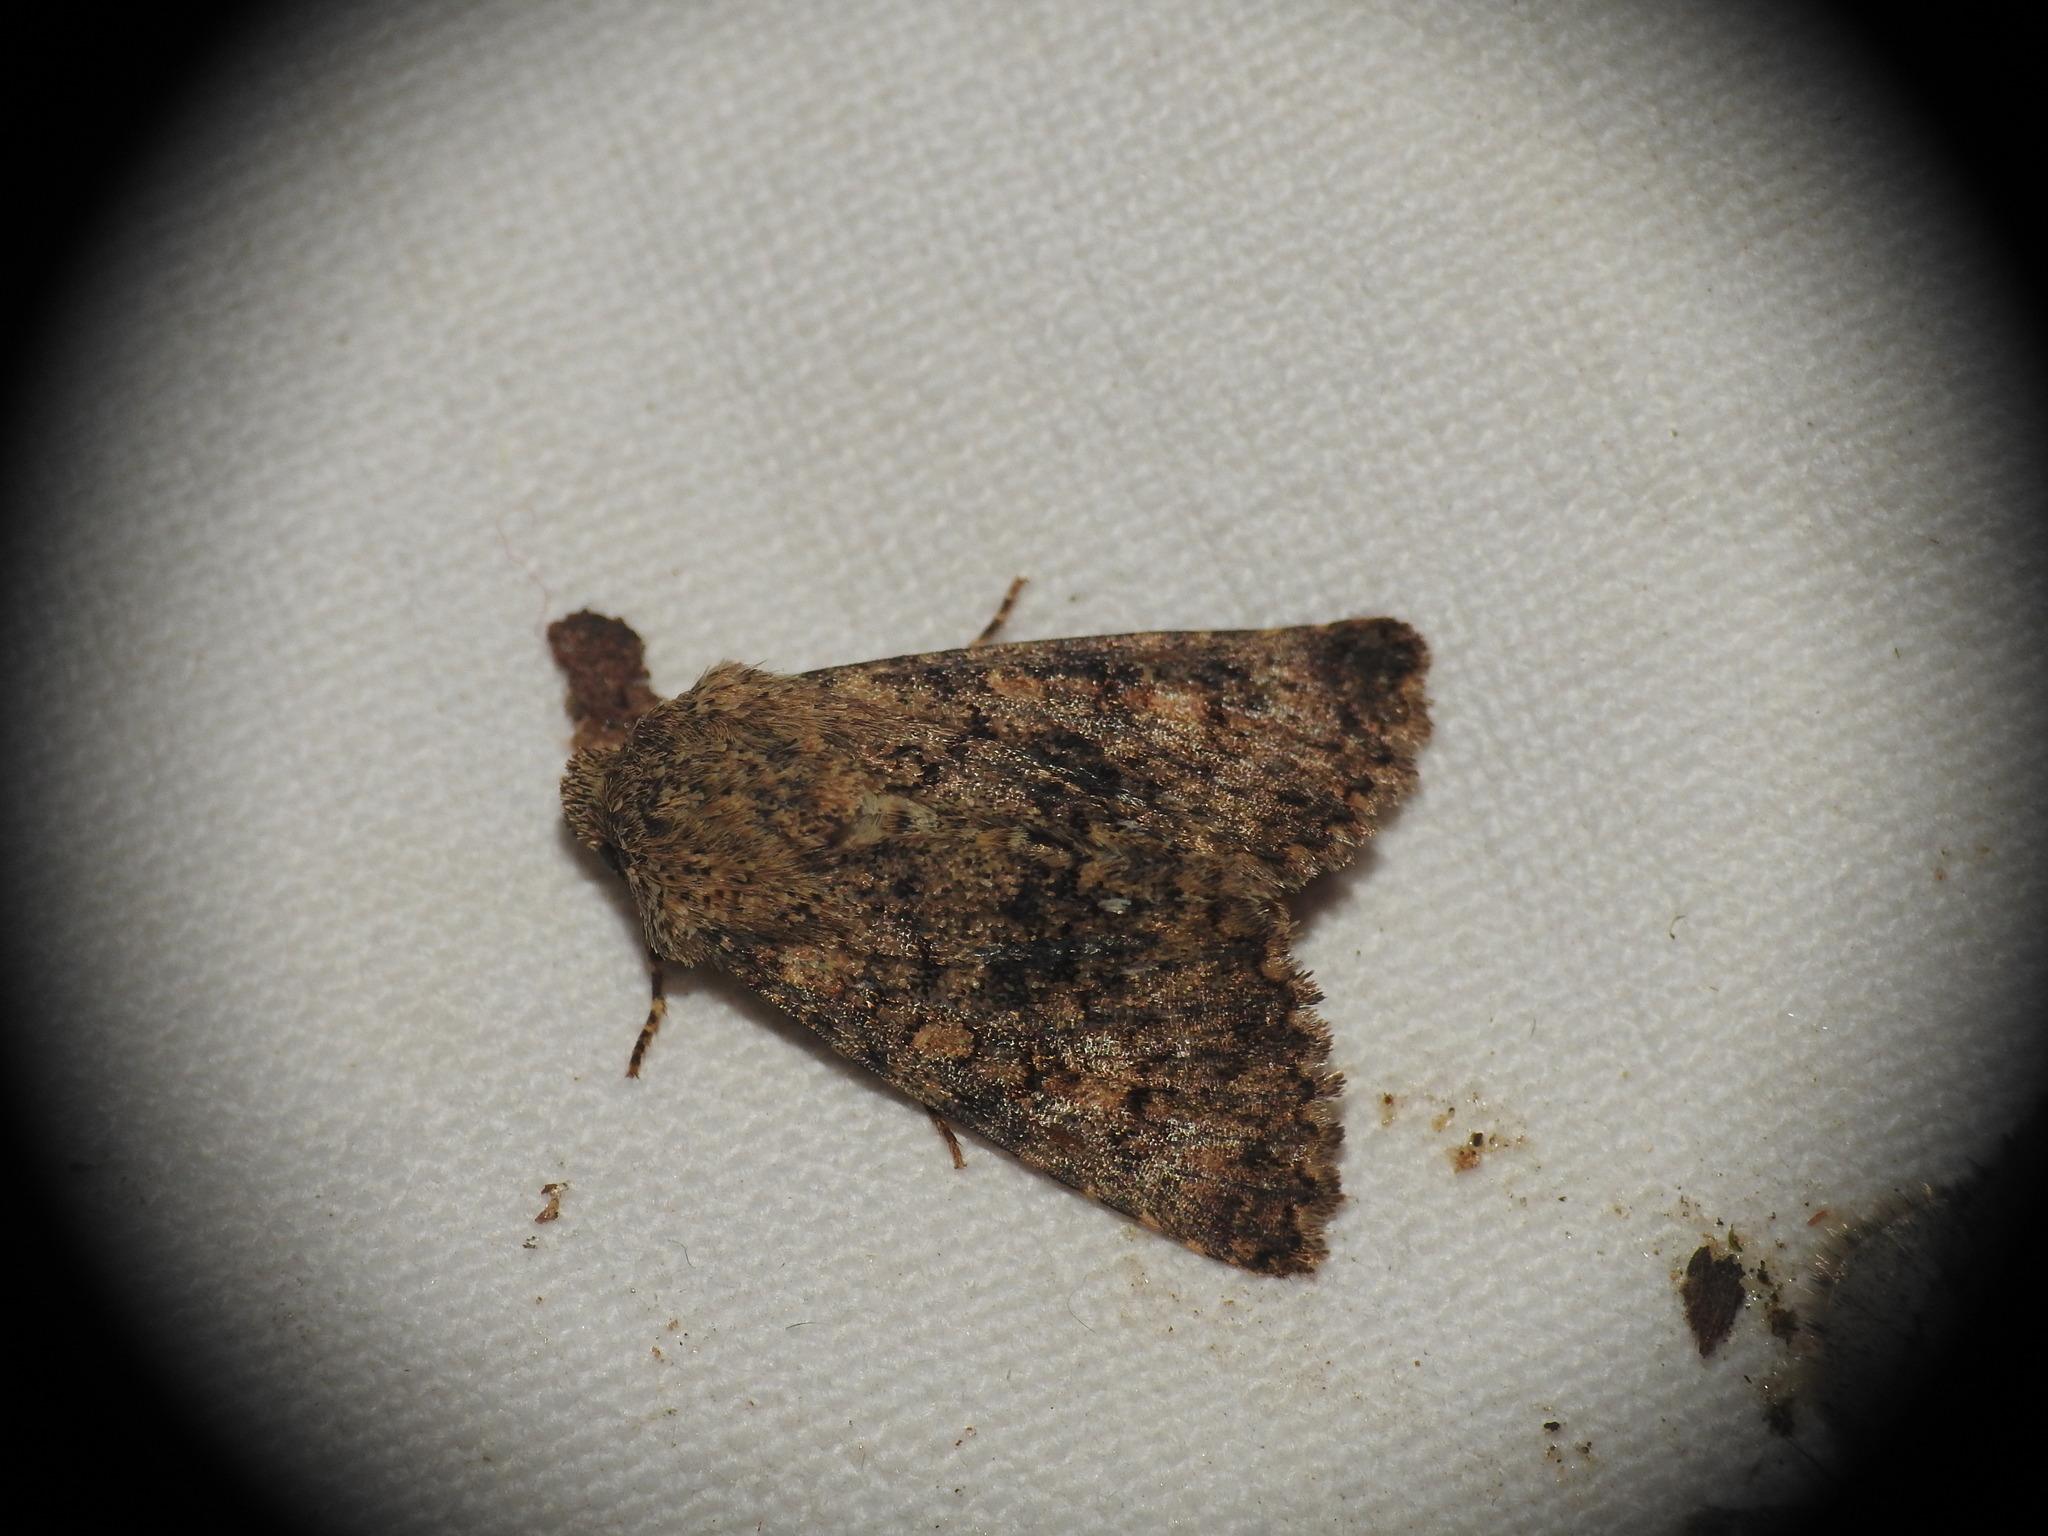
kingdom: Animalia
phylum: Arthropoda
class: Insecta
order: Lepidoptera
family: Noctuidae
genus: Recoropha
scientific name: Recoropha canteneri
